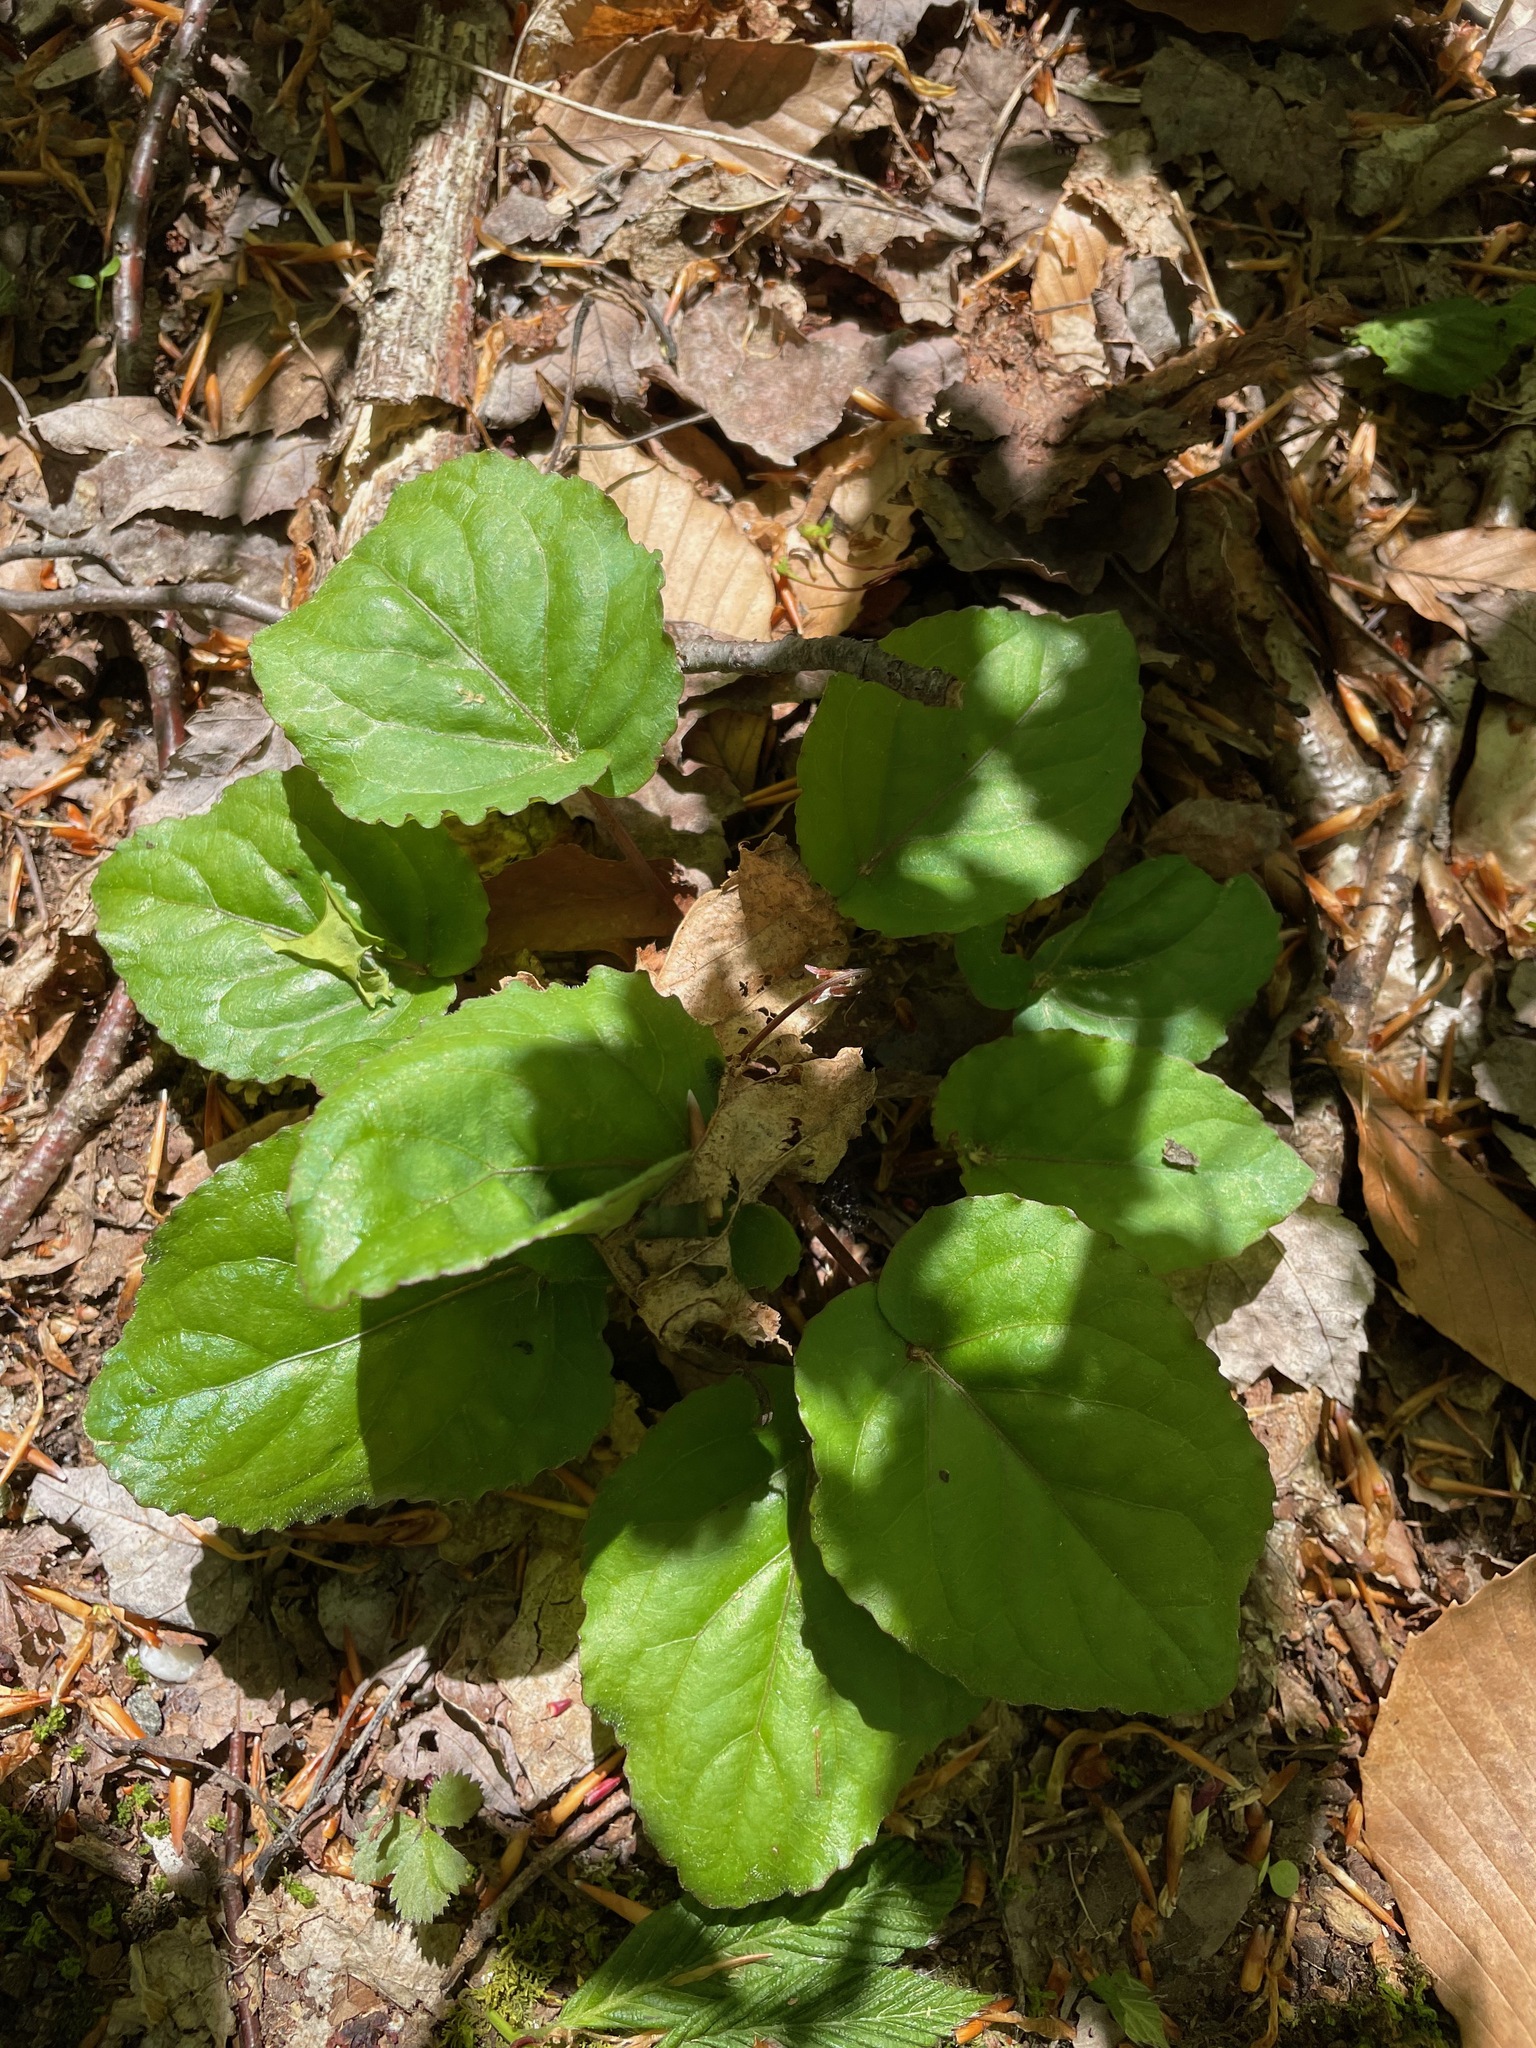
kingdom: Plantae
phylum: Tracheophyta
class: Magnoliopsida
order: Malpighiales
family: Violaceae
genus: Viola
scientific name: Viola rotundifolia
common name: Early yellow violet
